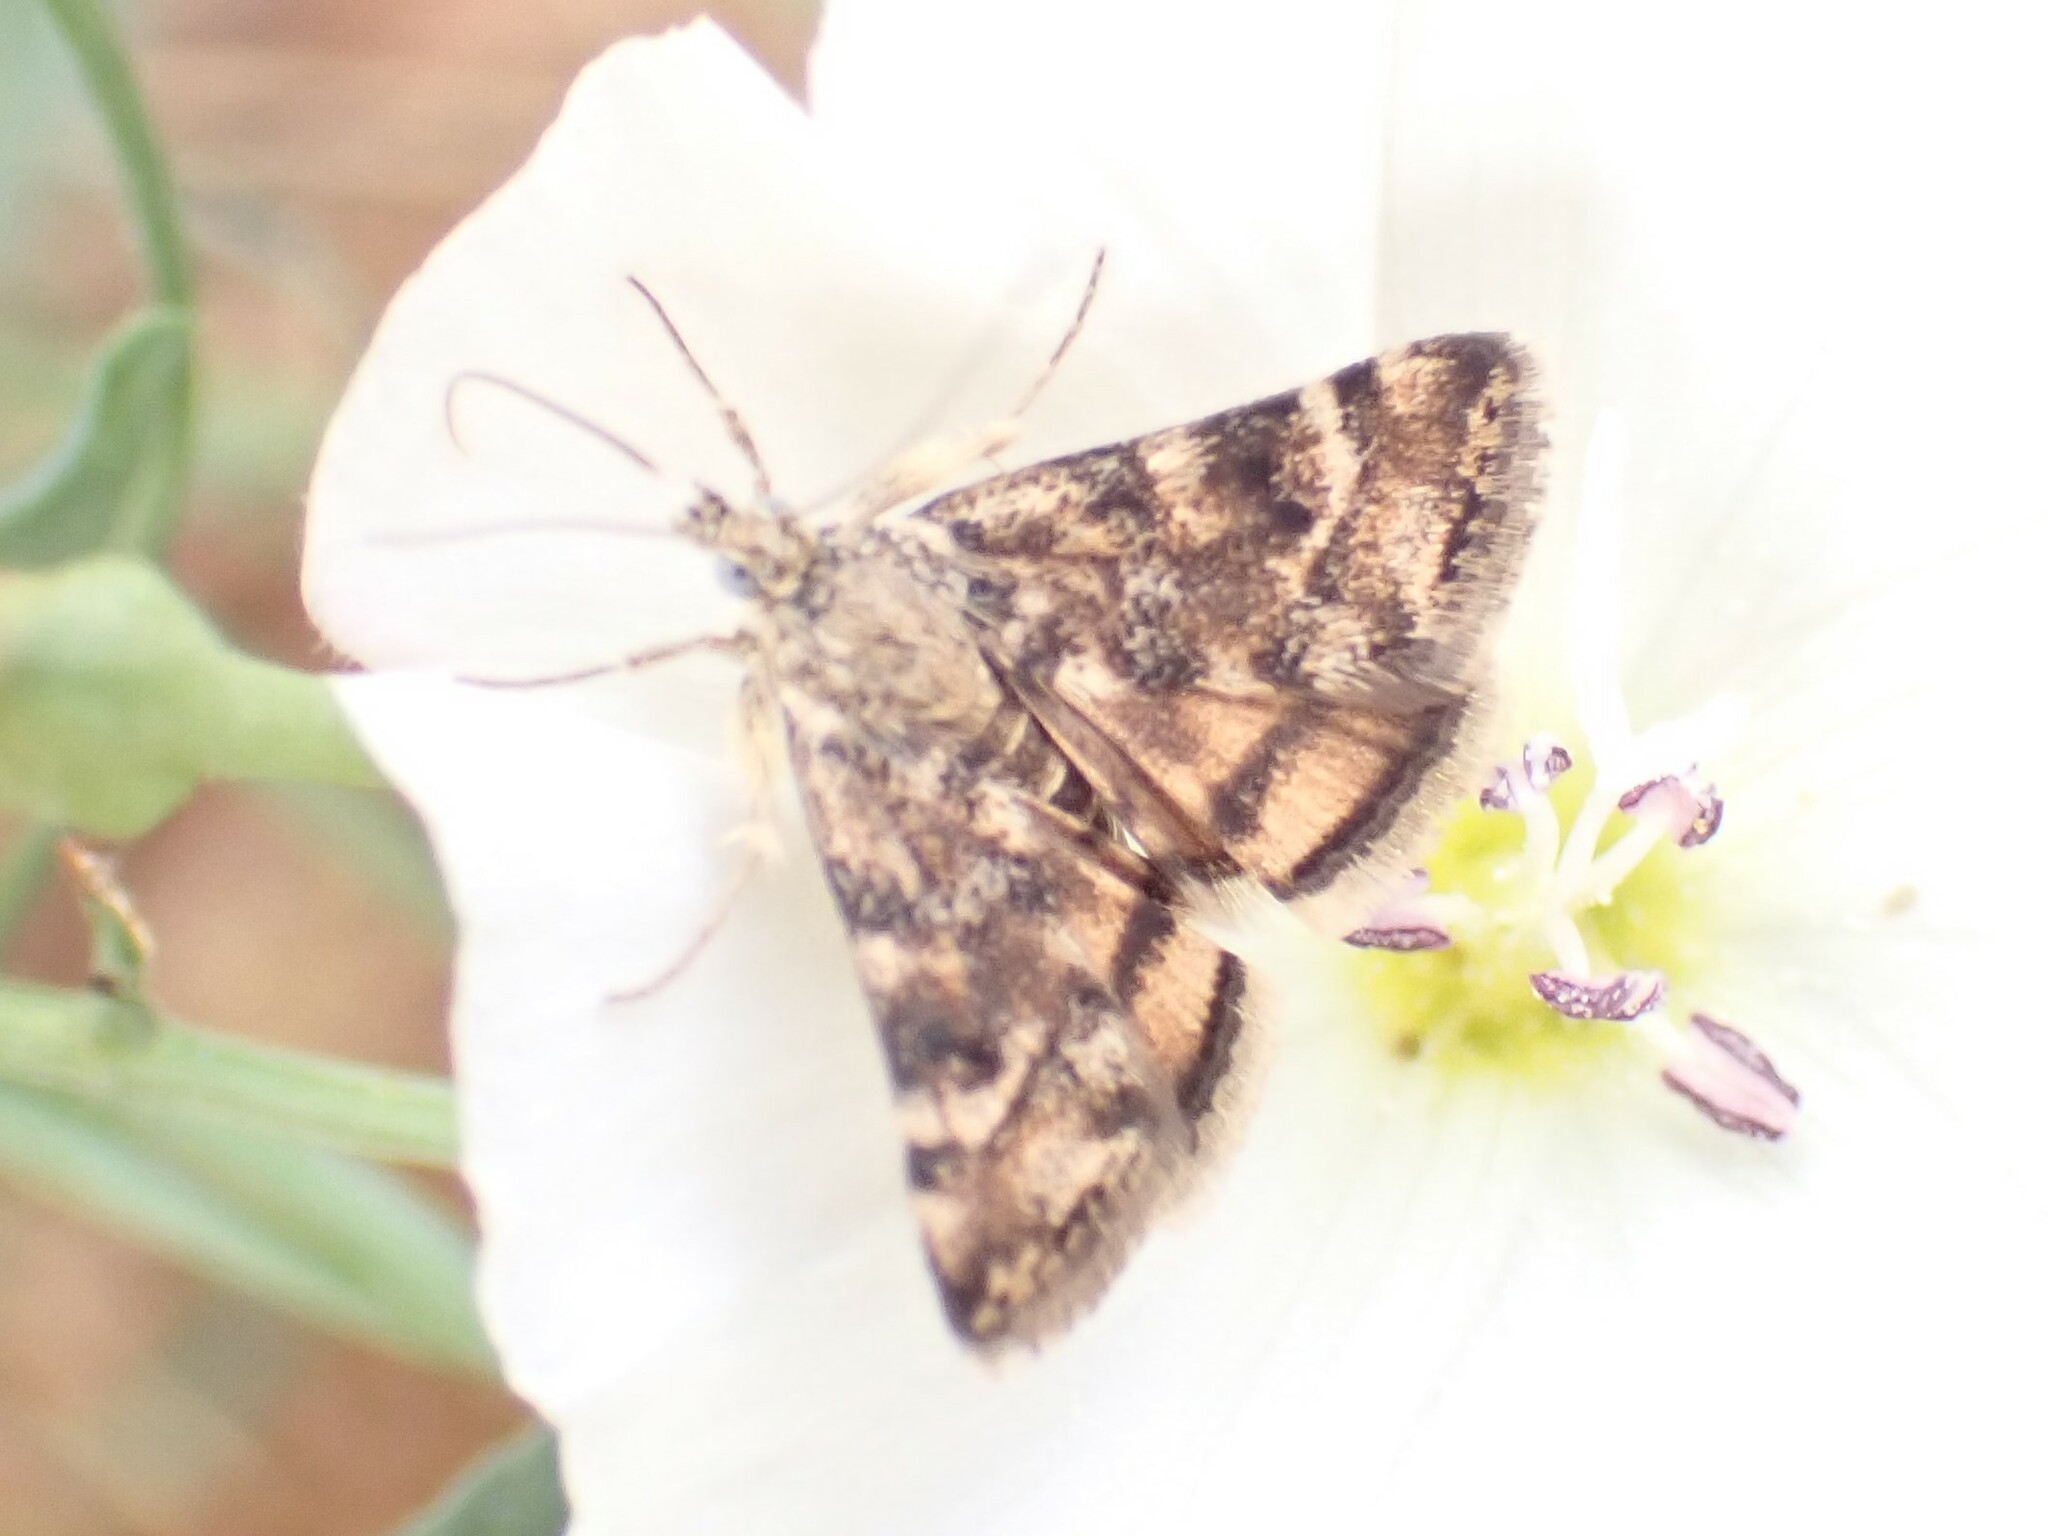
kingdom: Animalia
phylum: Arthropoda
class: Insecta
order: Lepidoptera
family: Crambidae
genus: Noctuelia
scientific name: Noctuelia Aporodes floralis
